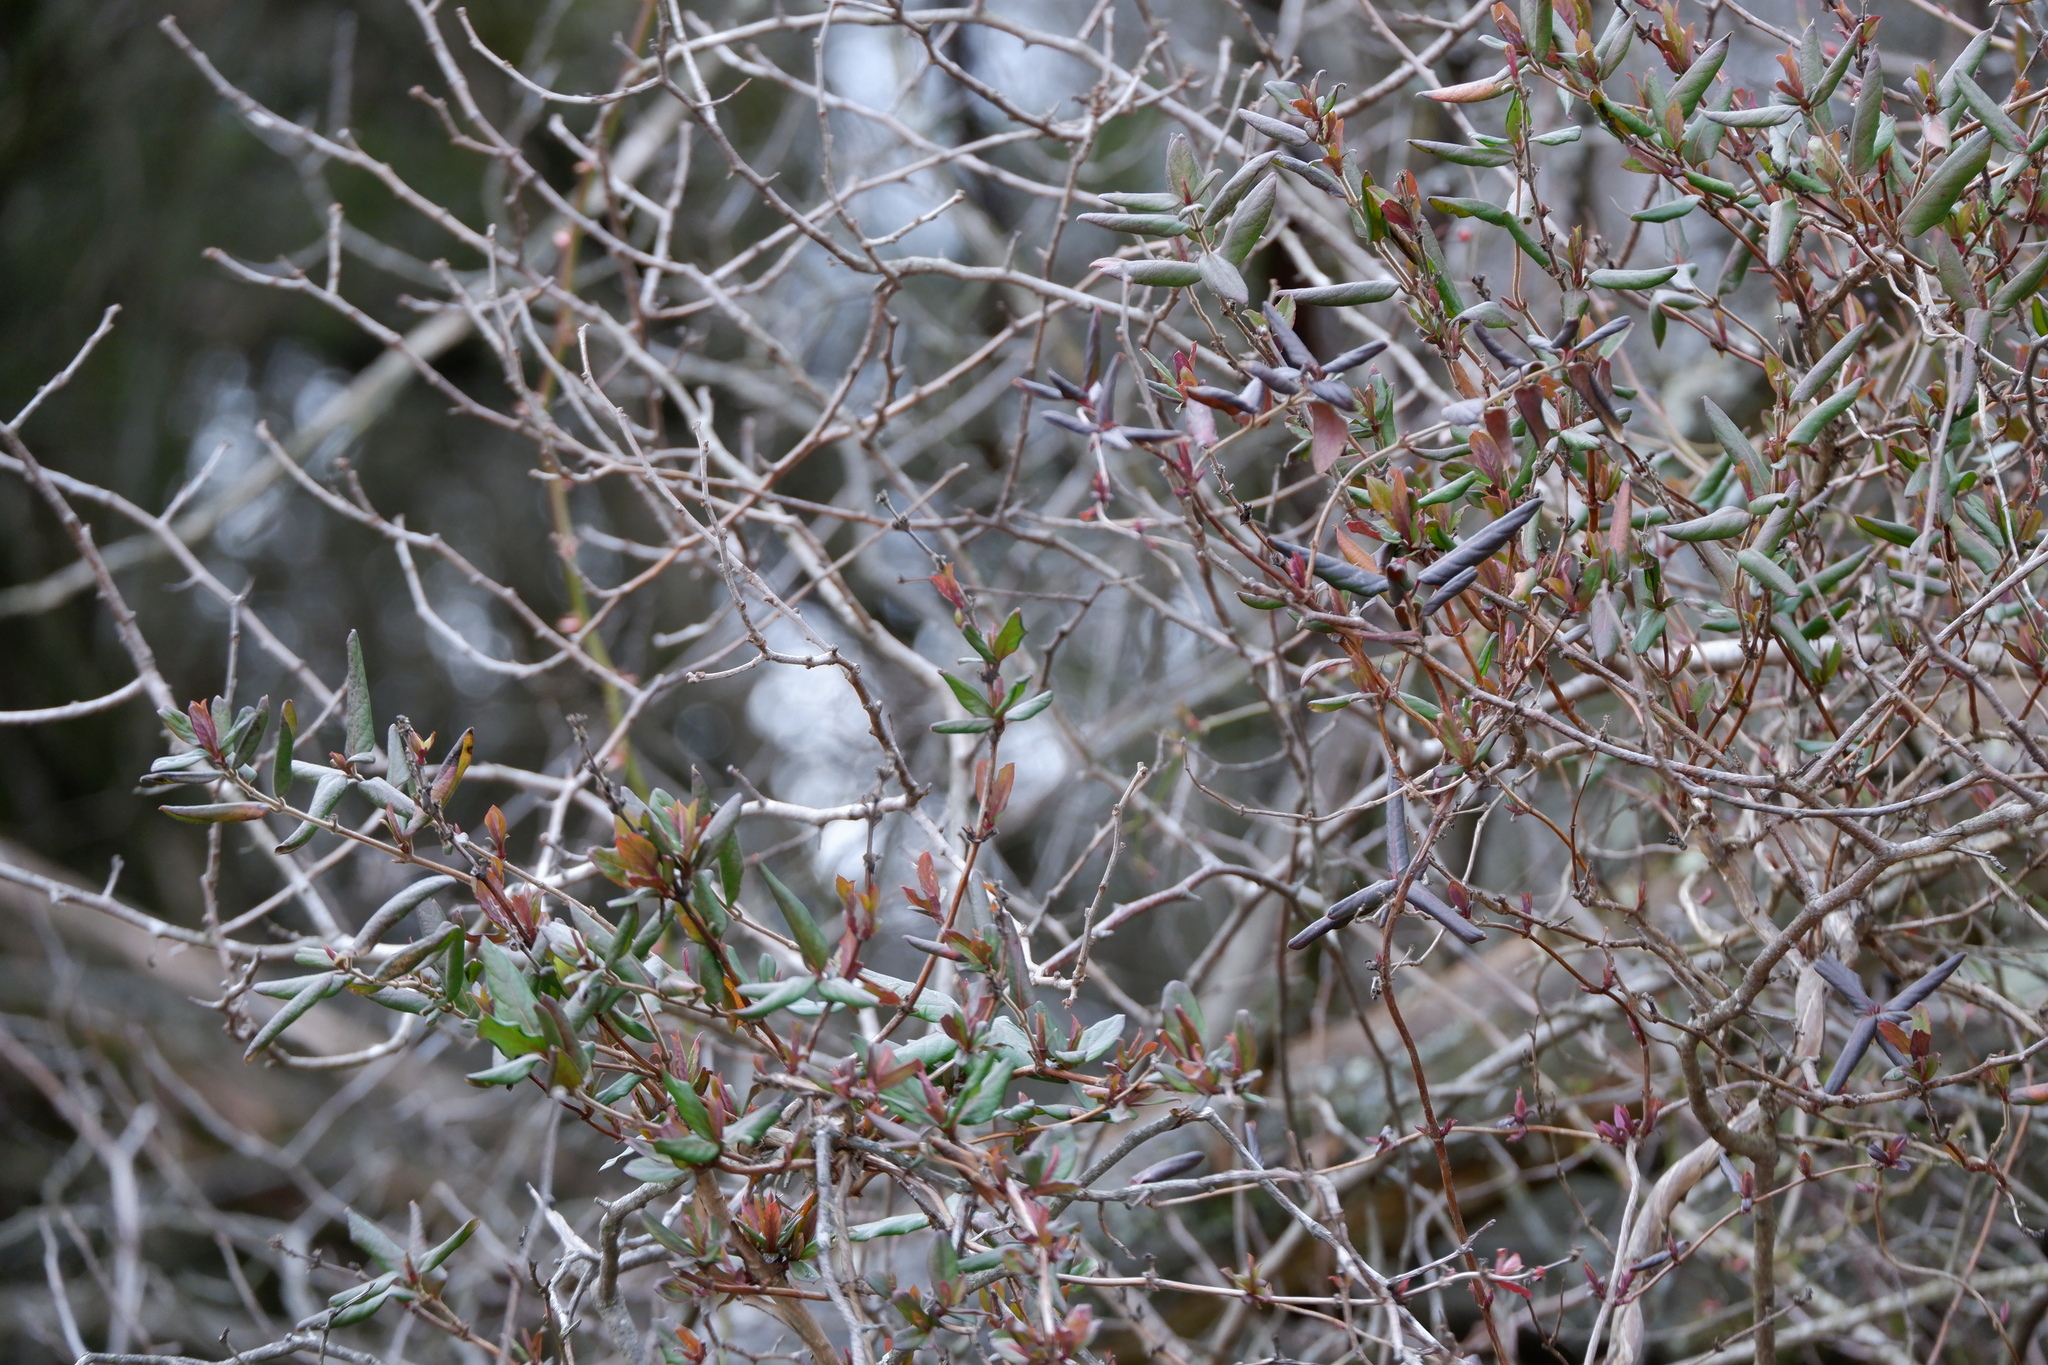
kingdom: Plantae
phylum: Tracheophyta
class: Magnoliopsida
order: Dipsacales
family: Caprifoliaceae
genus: Lonicera
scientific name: Lonicera japonica
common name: Japanese honeysuckle
